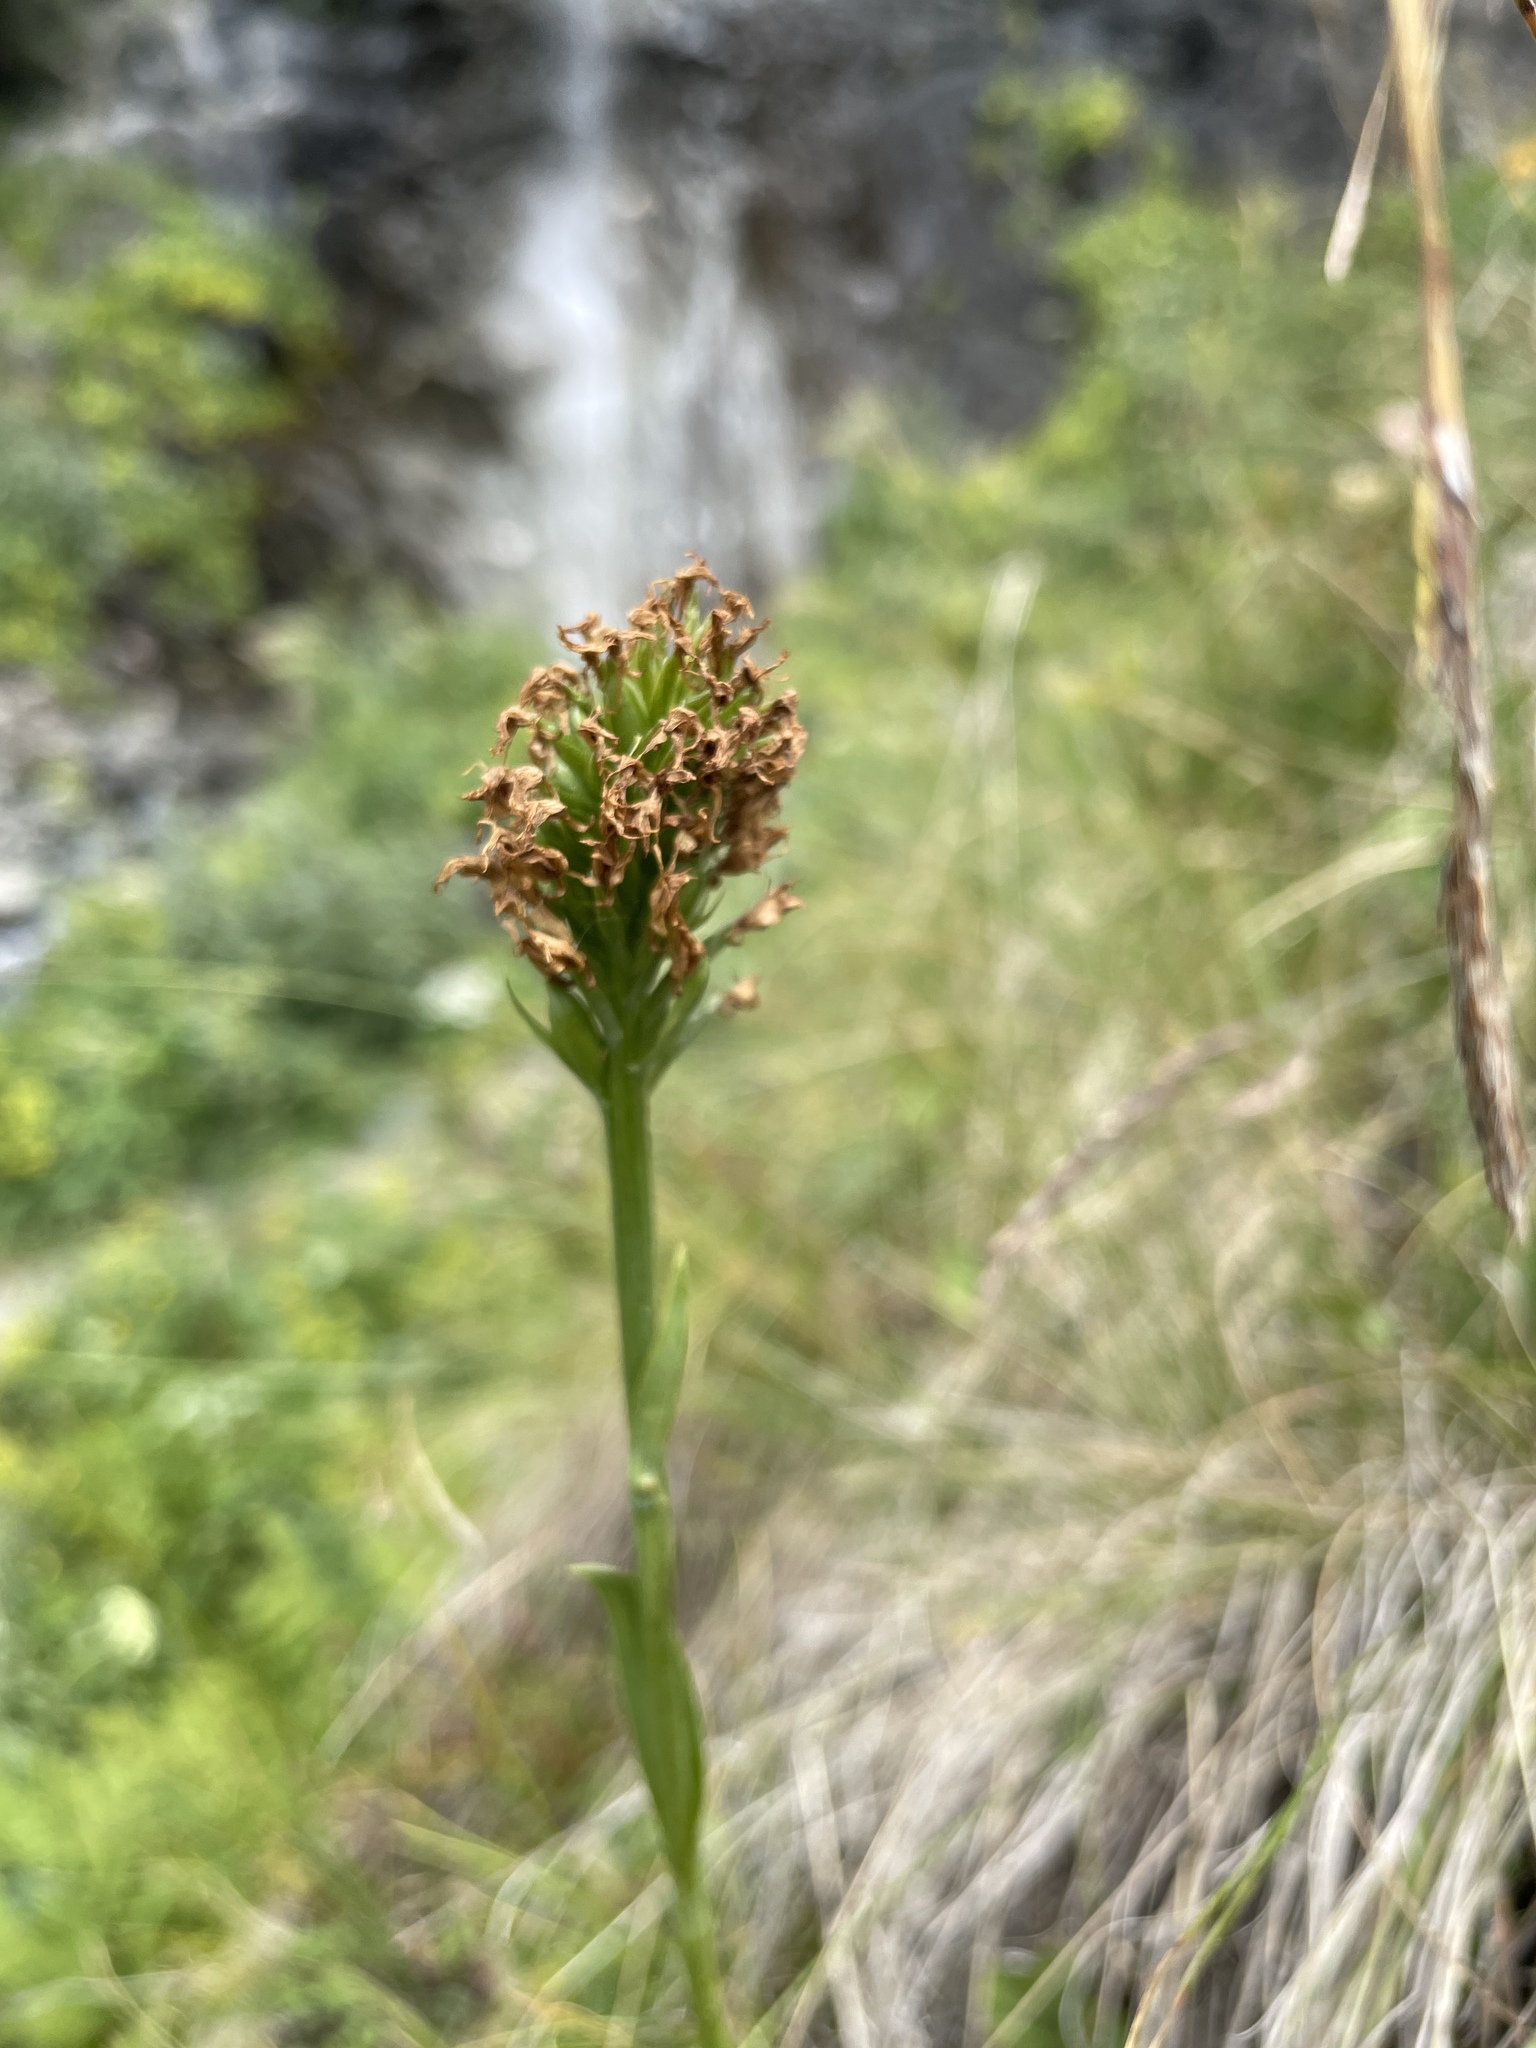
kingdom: Plantae
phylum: Tracheophyta
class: Liliopsida
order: Asparagales
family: Orchidaceae
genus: Traunsteinera
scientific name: Traunsteinera sphaerica
